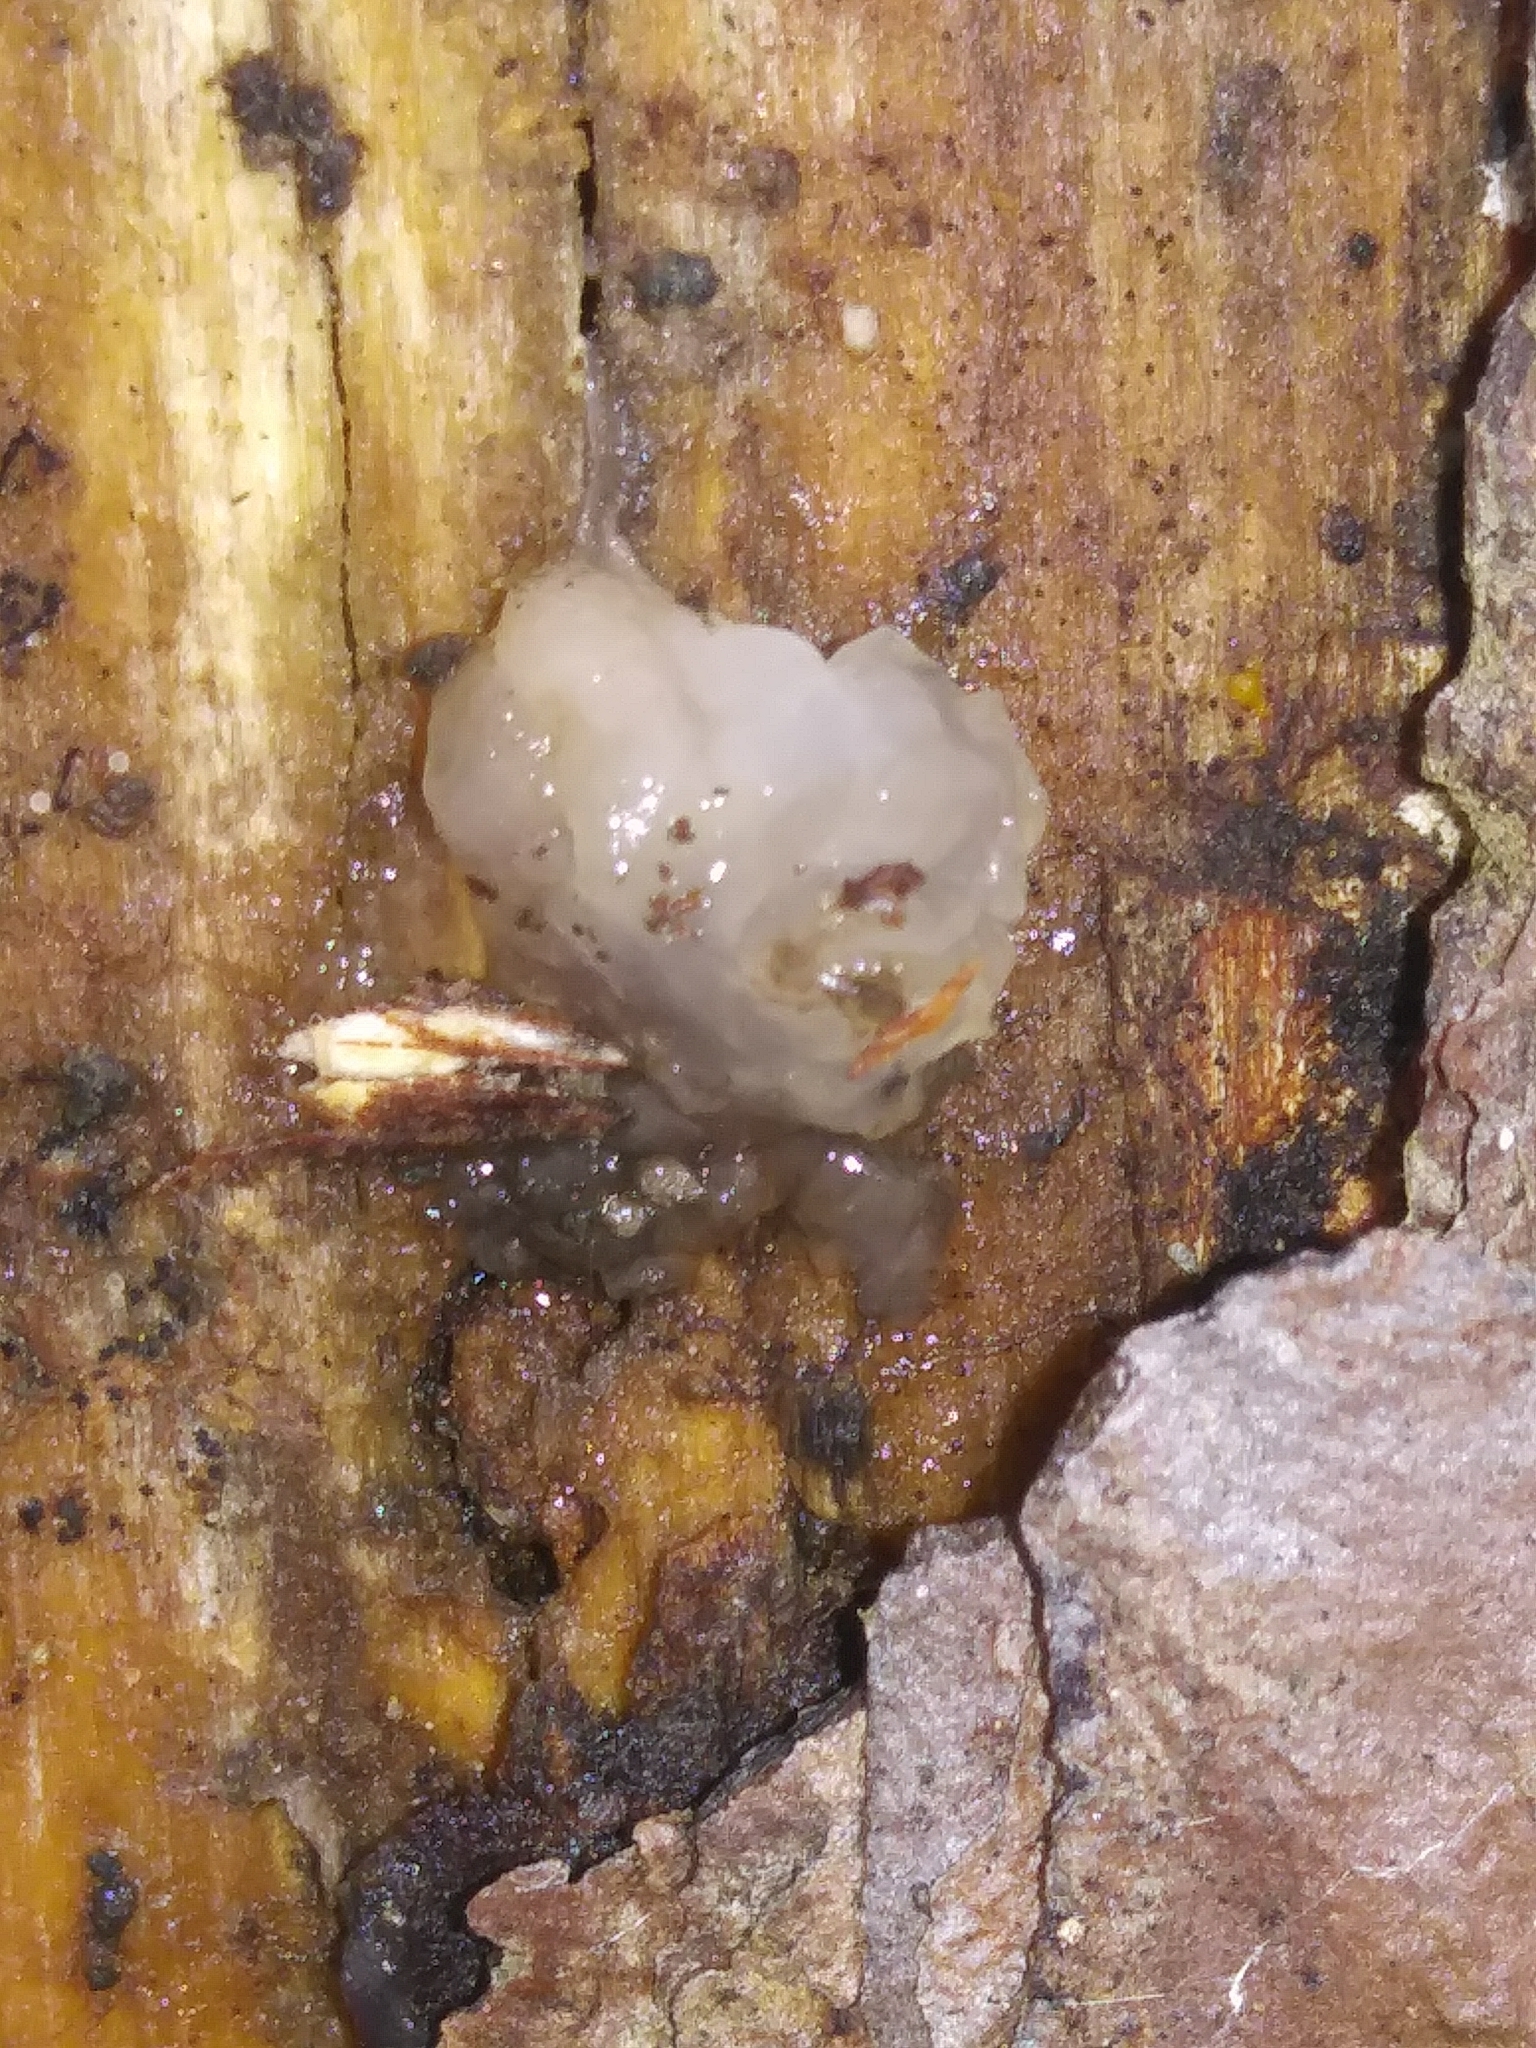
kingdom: Fungi
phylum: Basidiomycota
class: Agaricomycetes
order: Auriculariales
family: Hyaloriaceae
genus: Myxarium
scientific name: Myxarium nucleatum
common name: Crystal brain fungus
